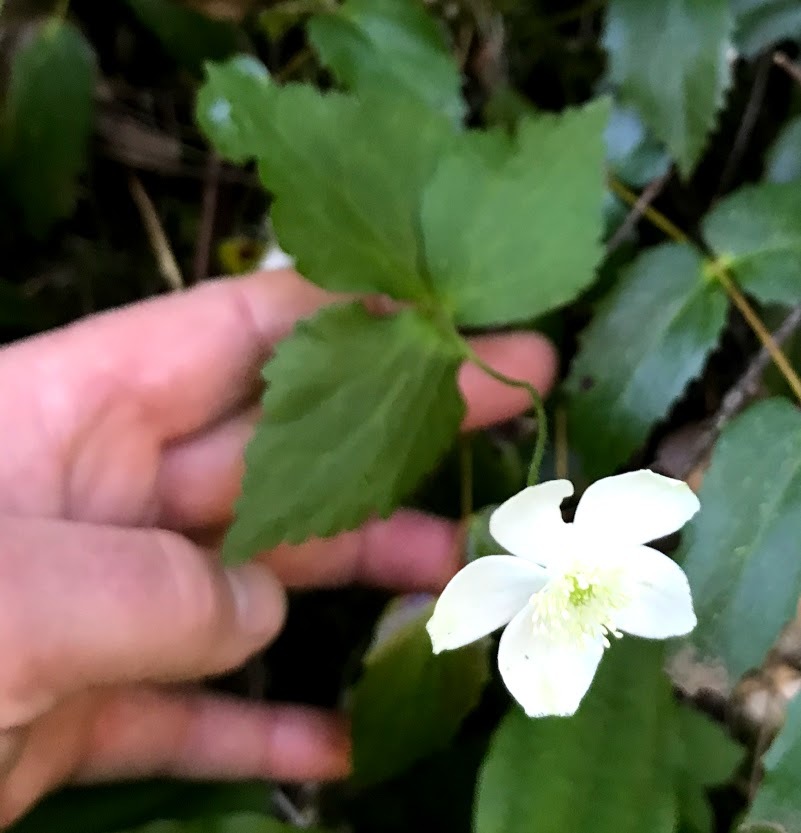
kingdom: Plantae
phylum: Tracheophyta
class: Magnoliopsida
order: Ranunculales
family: Ranunculaceae
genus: Anemonastrum
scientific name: Anemonastrum deltoideum
